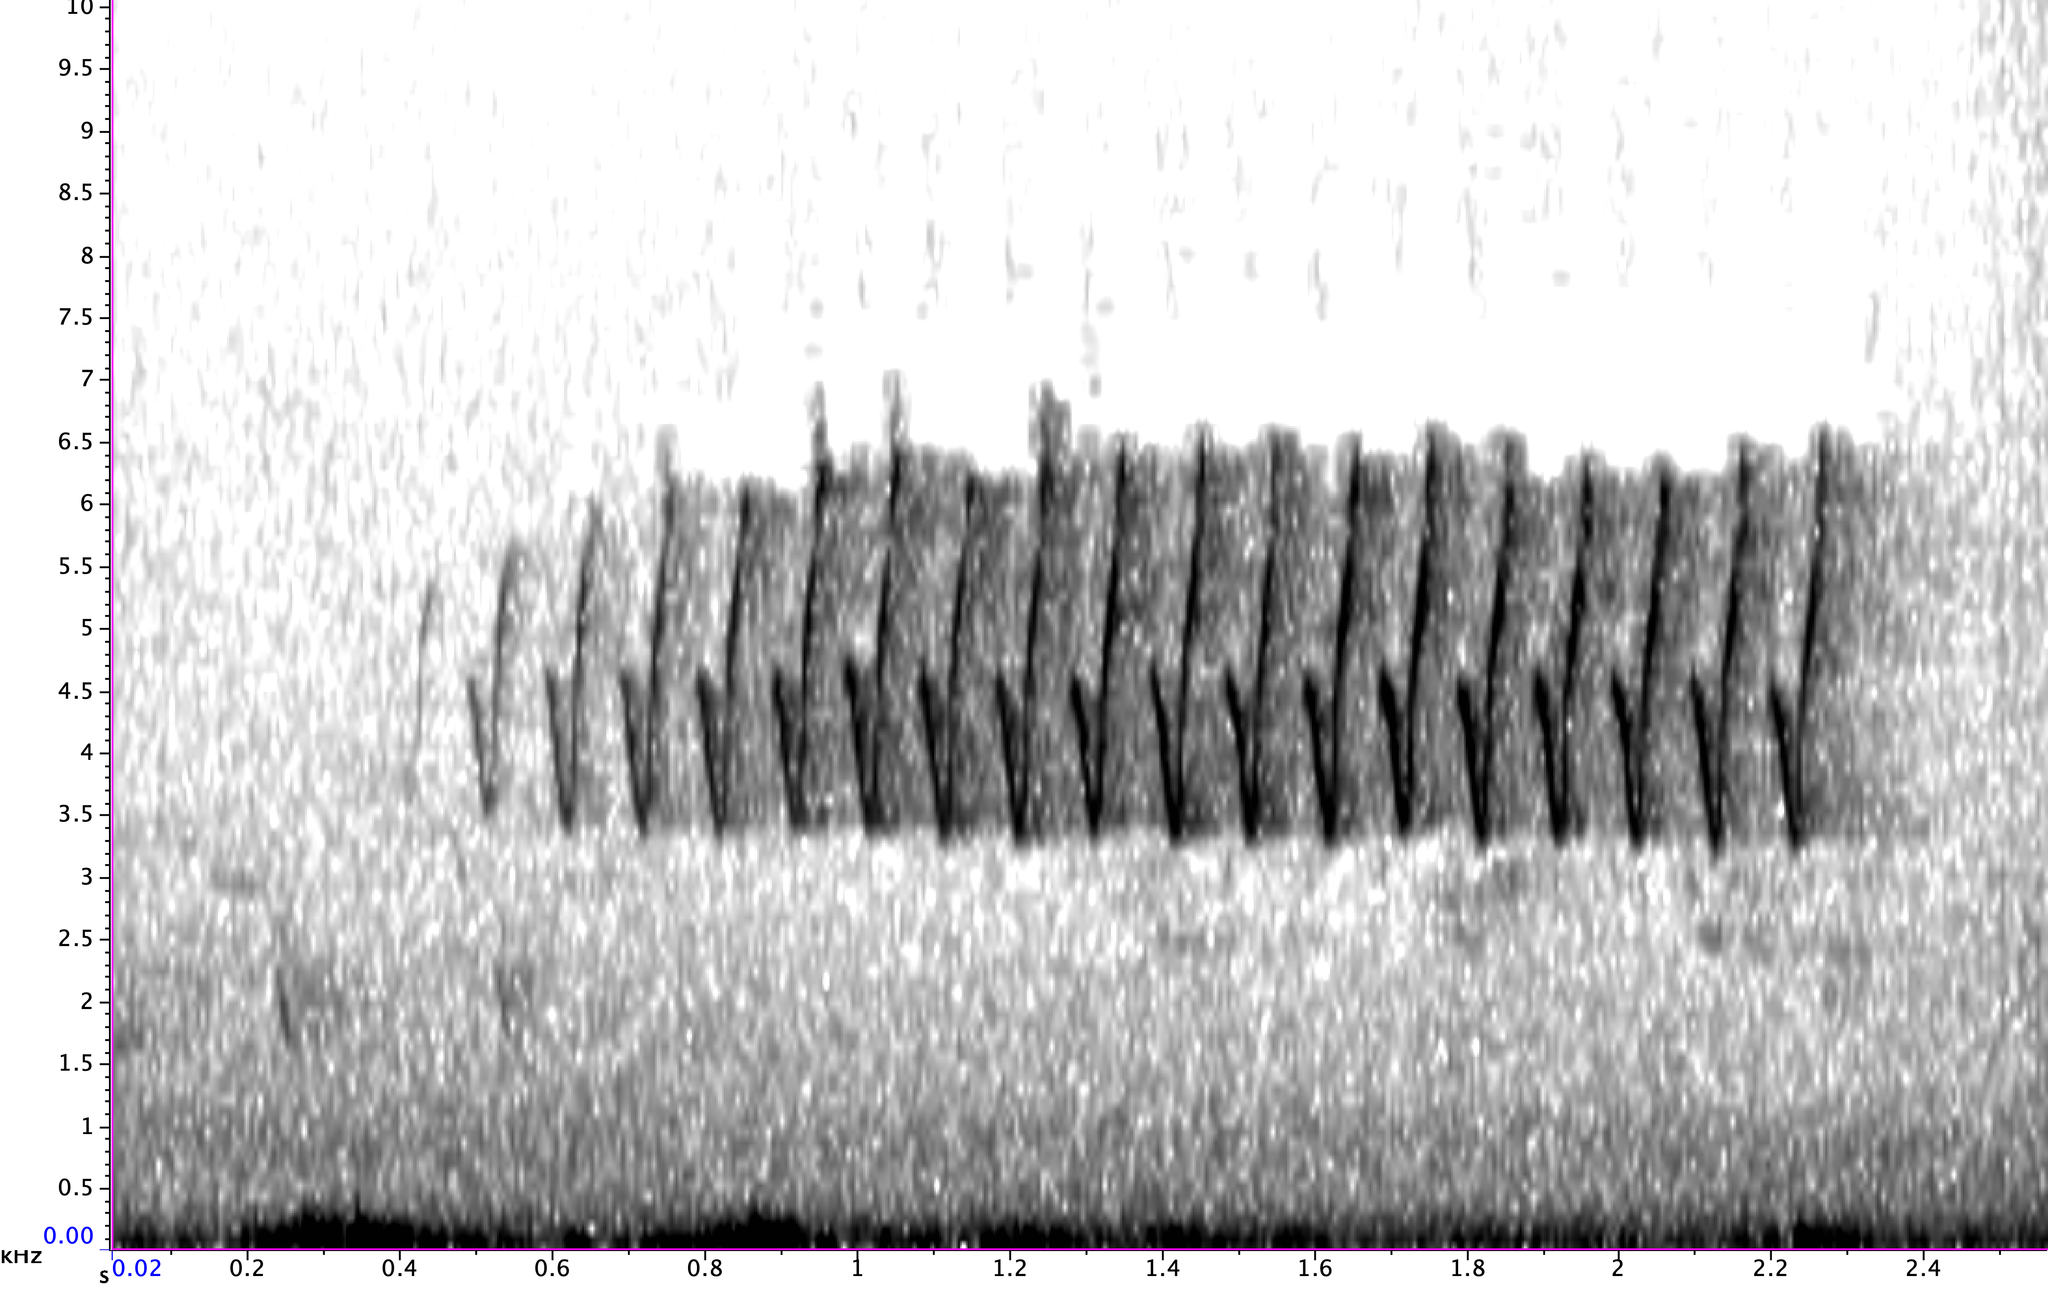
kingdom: Animalia
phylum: Chordata
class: Aves
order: Passeriformes
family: Parulidae
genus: Setophaga
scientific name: Setophaga pinus
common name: Pine warbler
